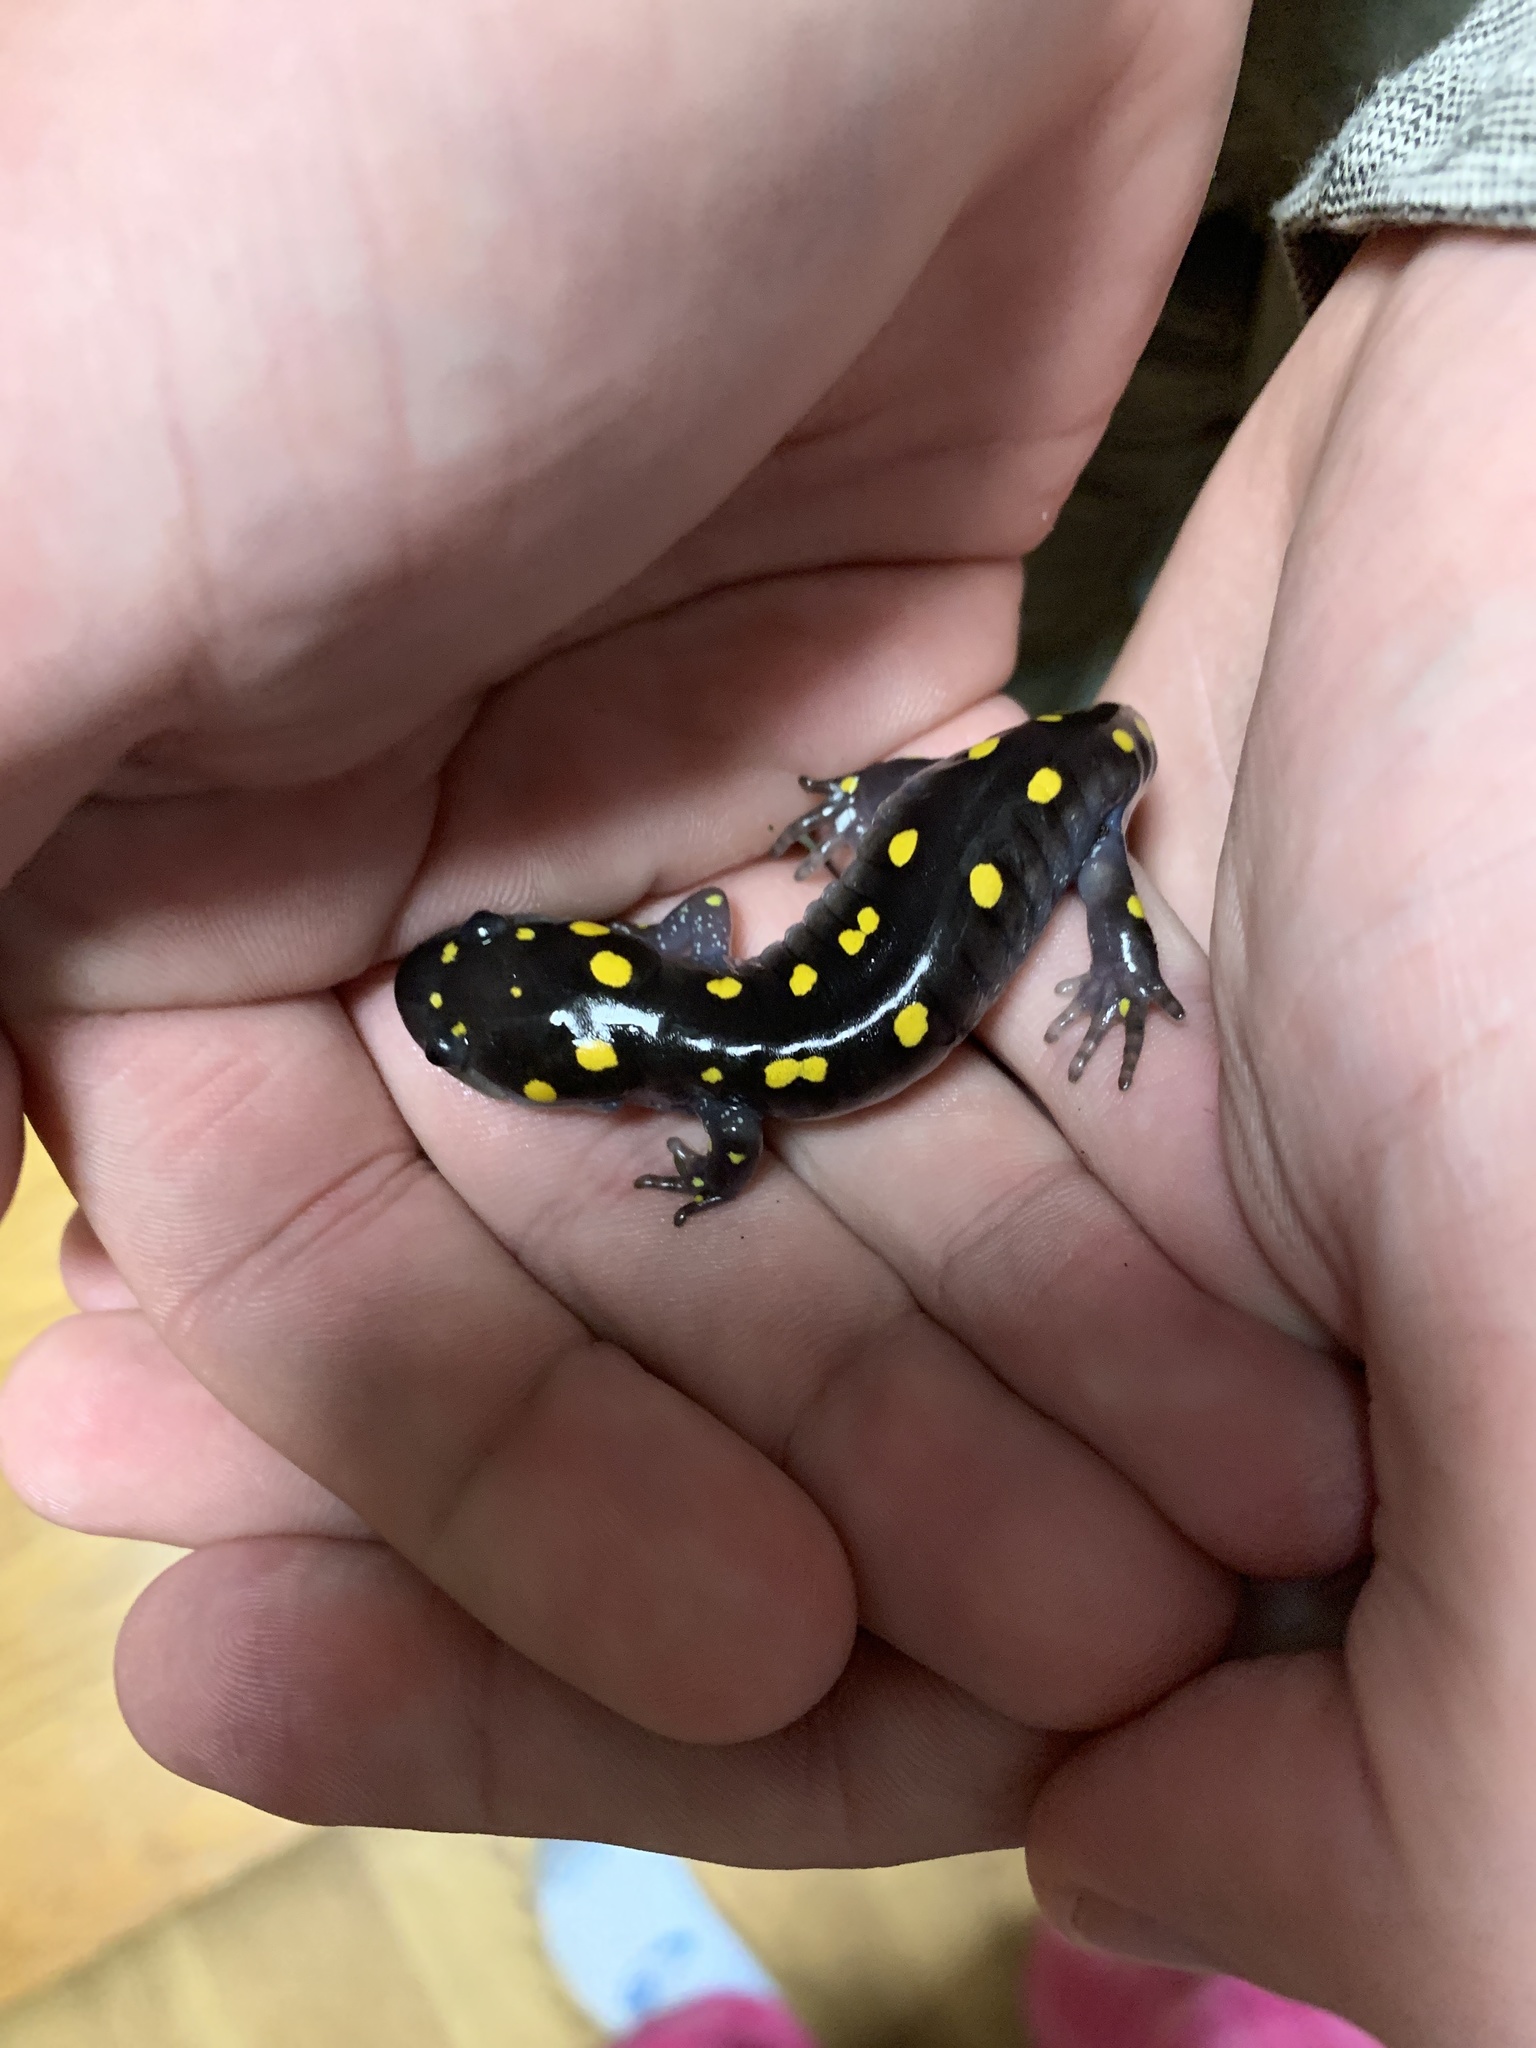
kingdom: Animalia
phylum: Chordata
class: Amphibia
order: Caudata
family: Ambystomatidae
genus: Ambystoma
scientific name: Ambystoma maculatum
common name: Spotted salamander
